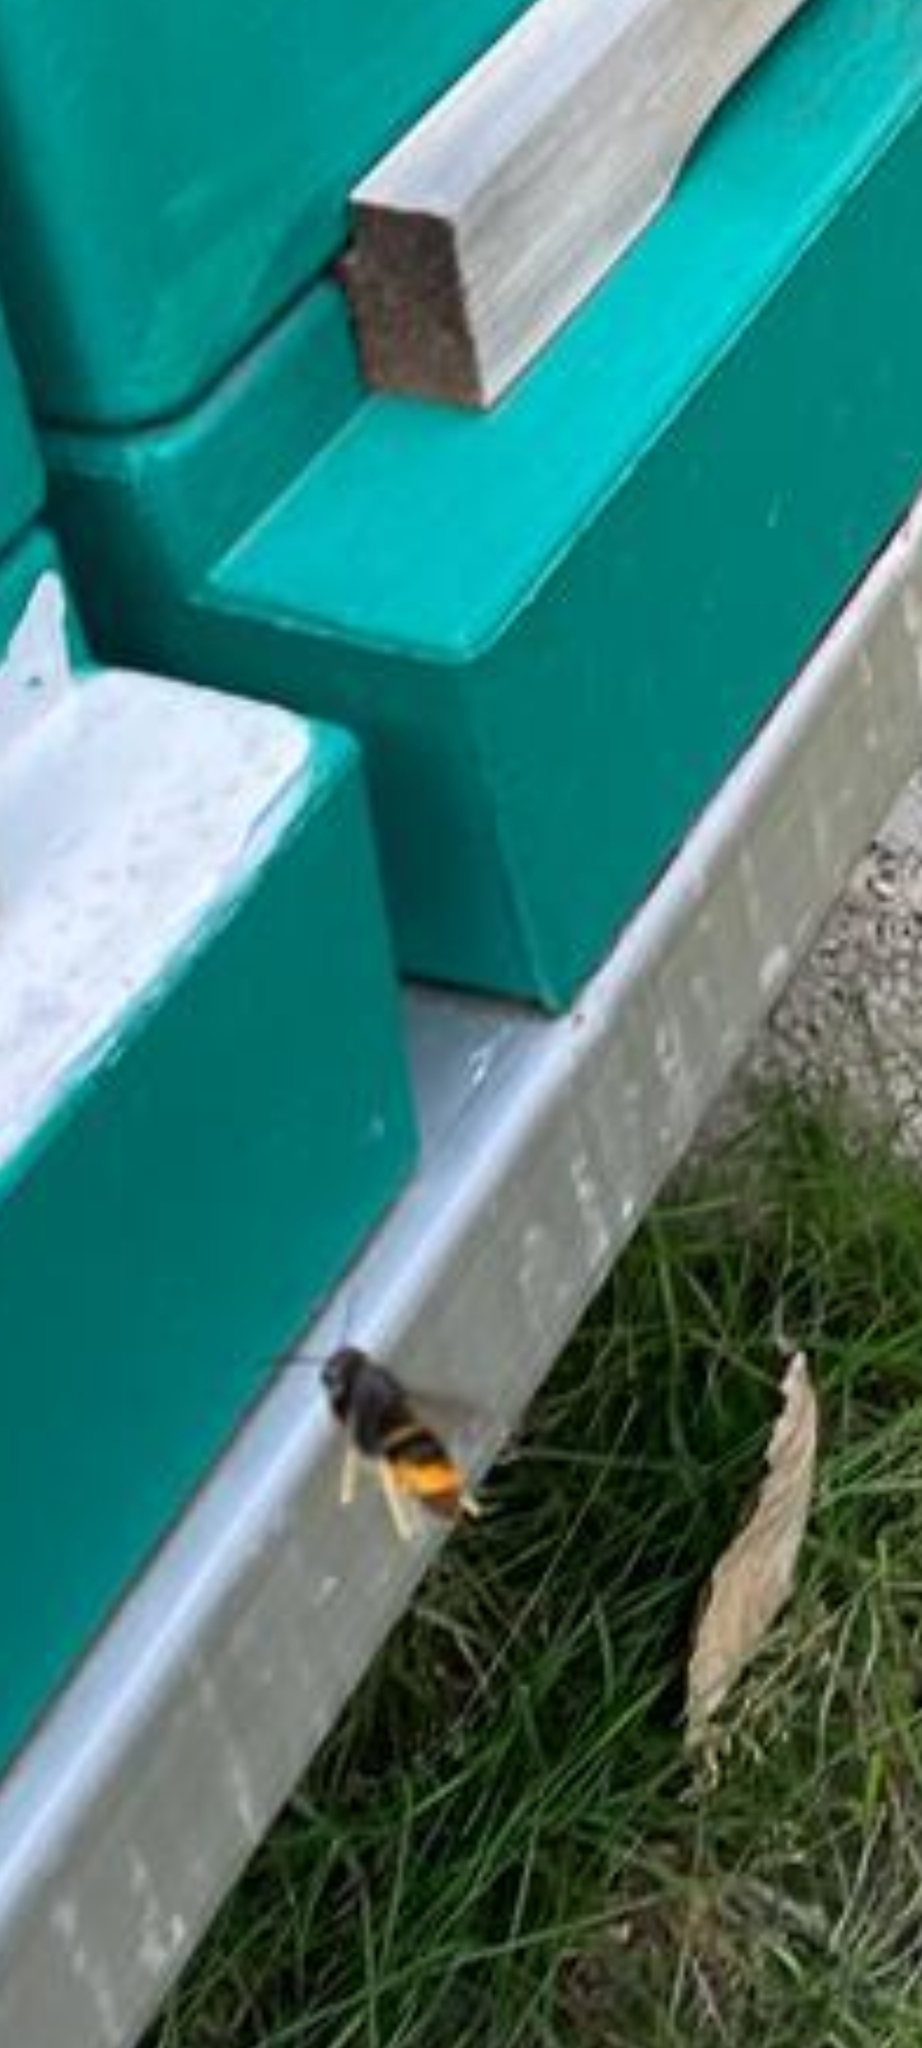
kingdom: Animalia
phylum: Arthropoda
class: Insecta
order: Hymenoptera
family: Vespidae
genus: Vespa
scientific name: Vespa velutina
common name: Asian hornet
